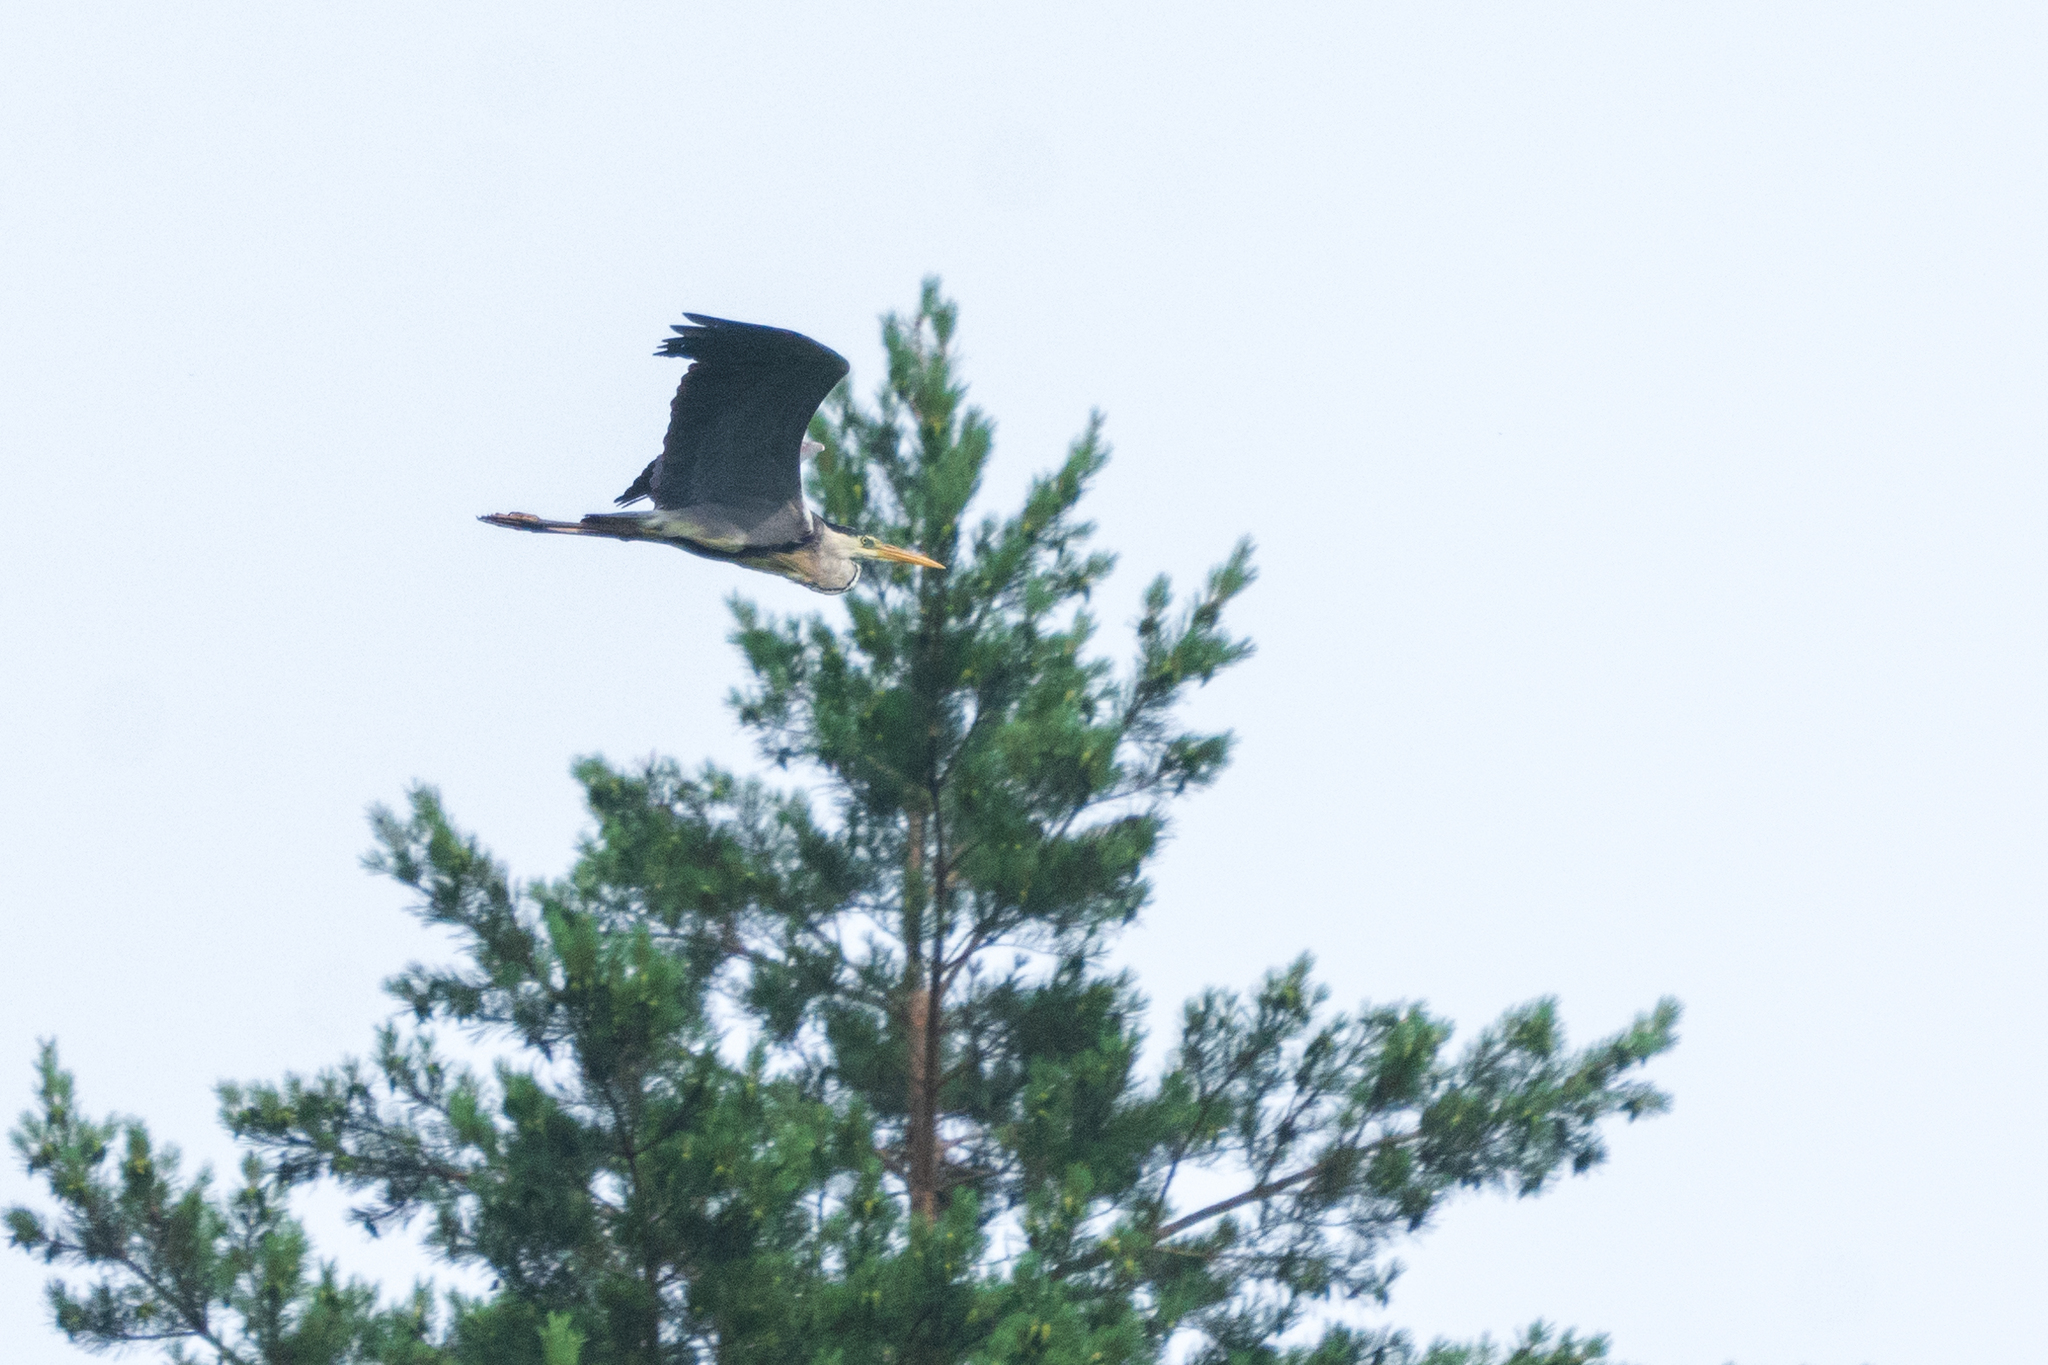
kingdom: Animalia
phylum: Chordata
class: Aves
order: Pelecaniformes
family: Ardeidae
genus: Ardea
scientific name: Ardea cinerea
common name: Grey heron
